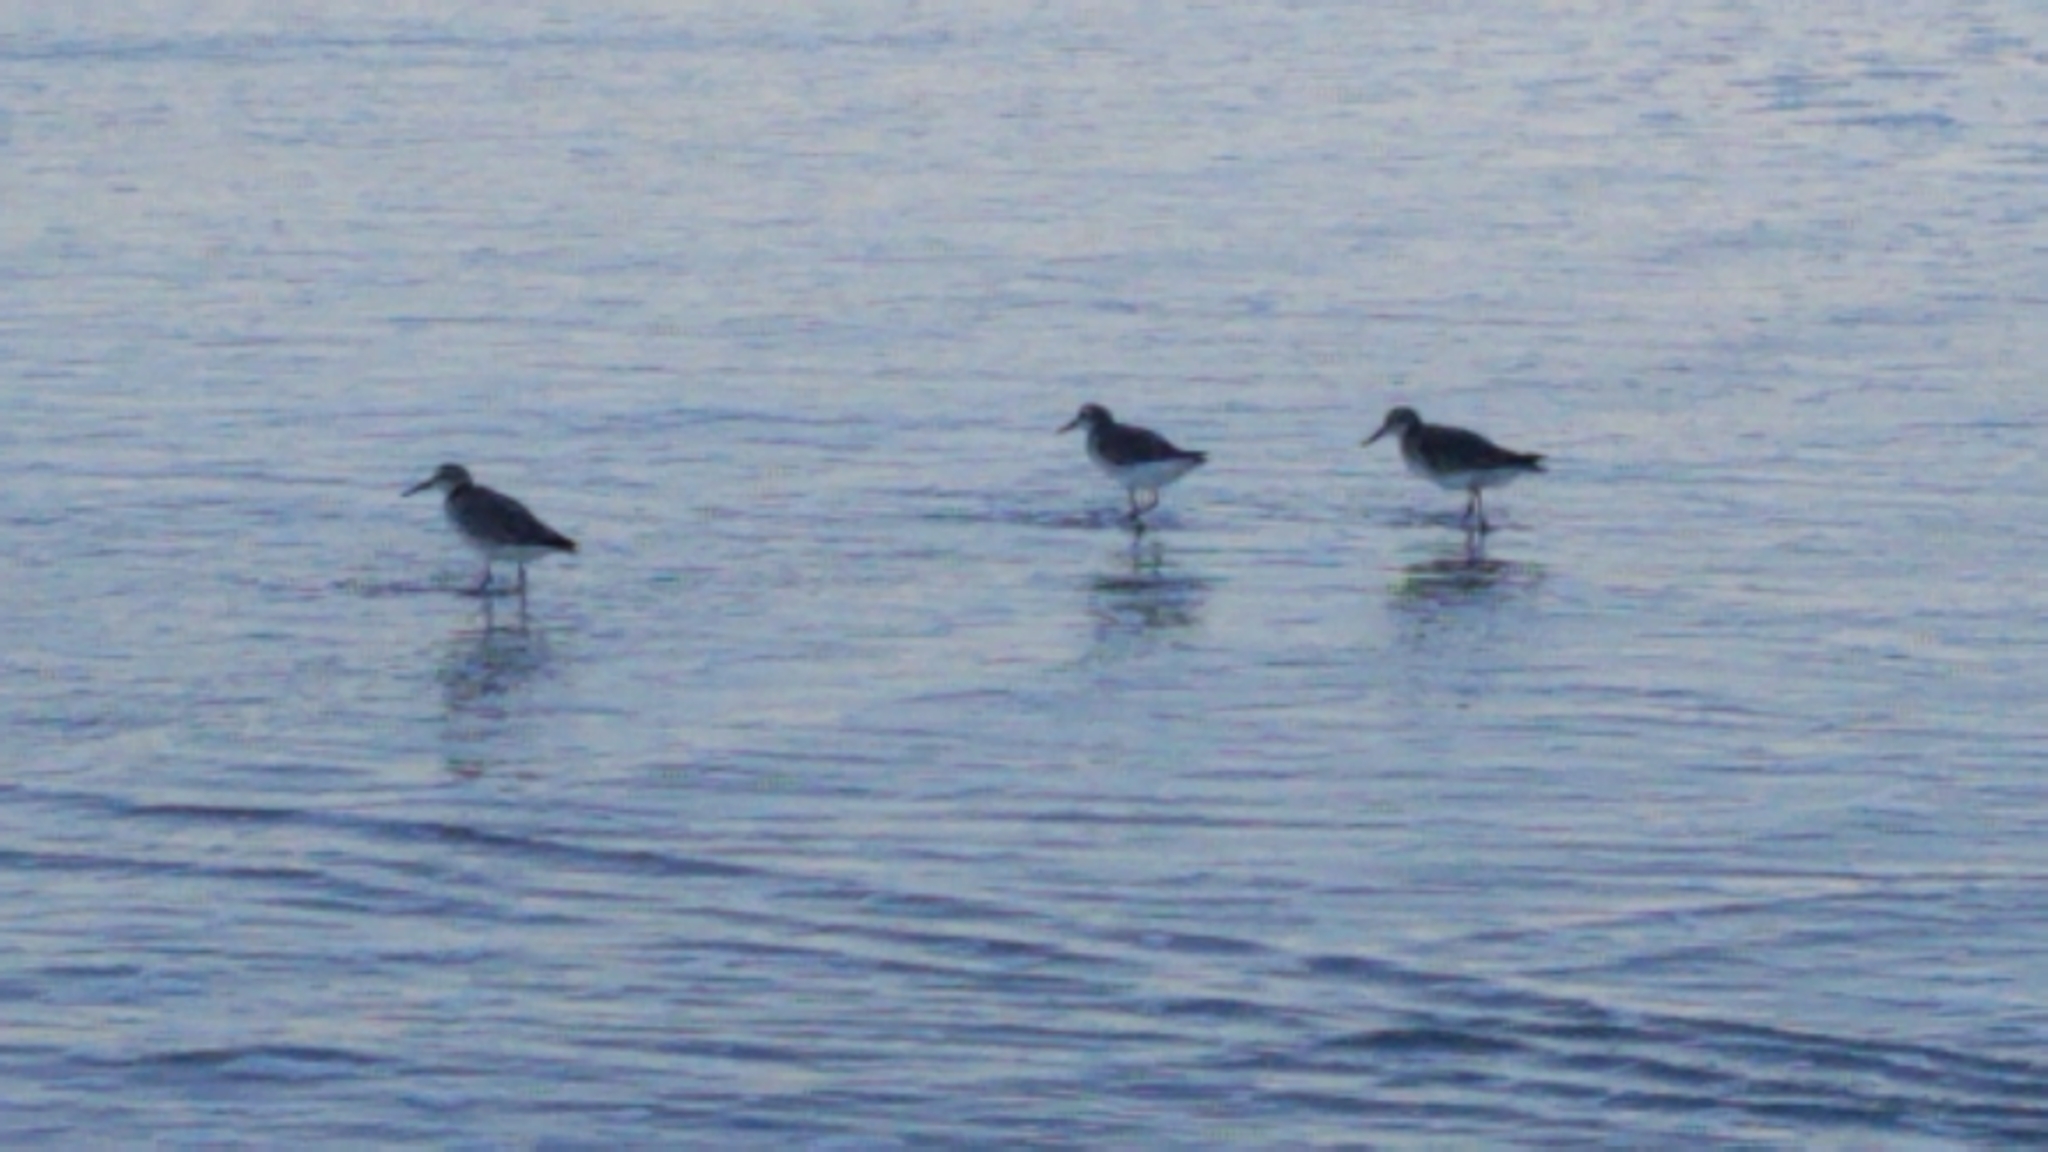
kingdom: Animalia
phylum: Chordata
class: Aves
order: Charadriiformes
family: Scolopacidae
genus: Calidris
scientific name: Calidris canutus
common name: Red knot
